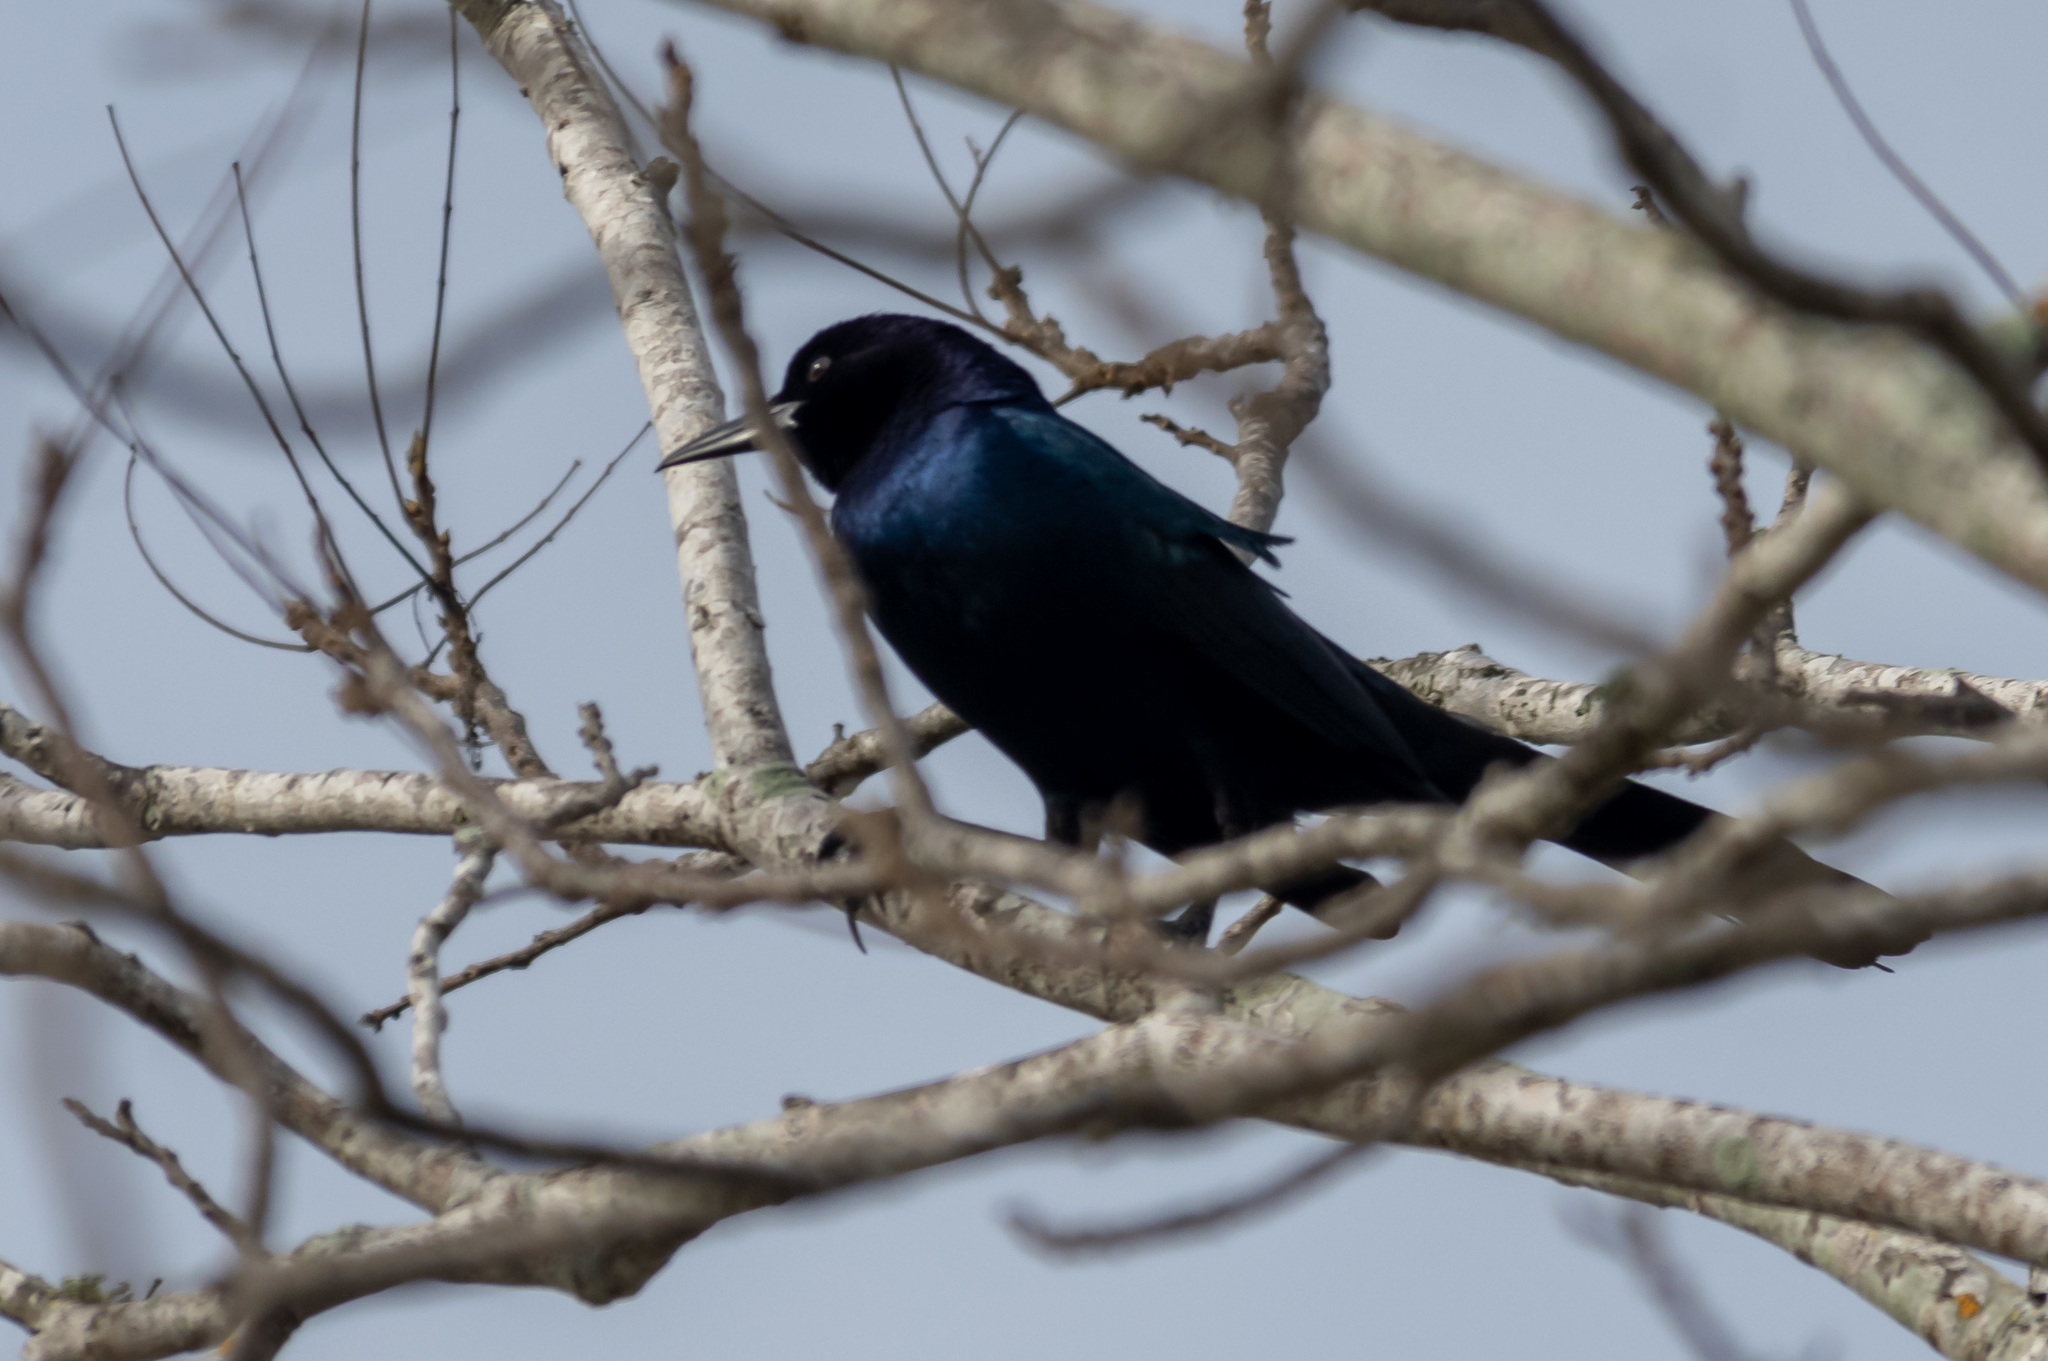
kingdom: Animalia
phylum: Chordata
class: Aves
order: Passeriformes
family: Icteridae
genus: Quiscalus
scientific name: Quiscalus major
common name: Boat-tailed grackle
